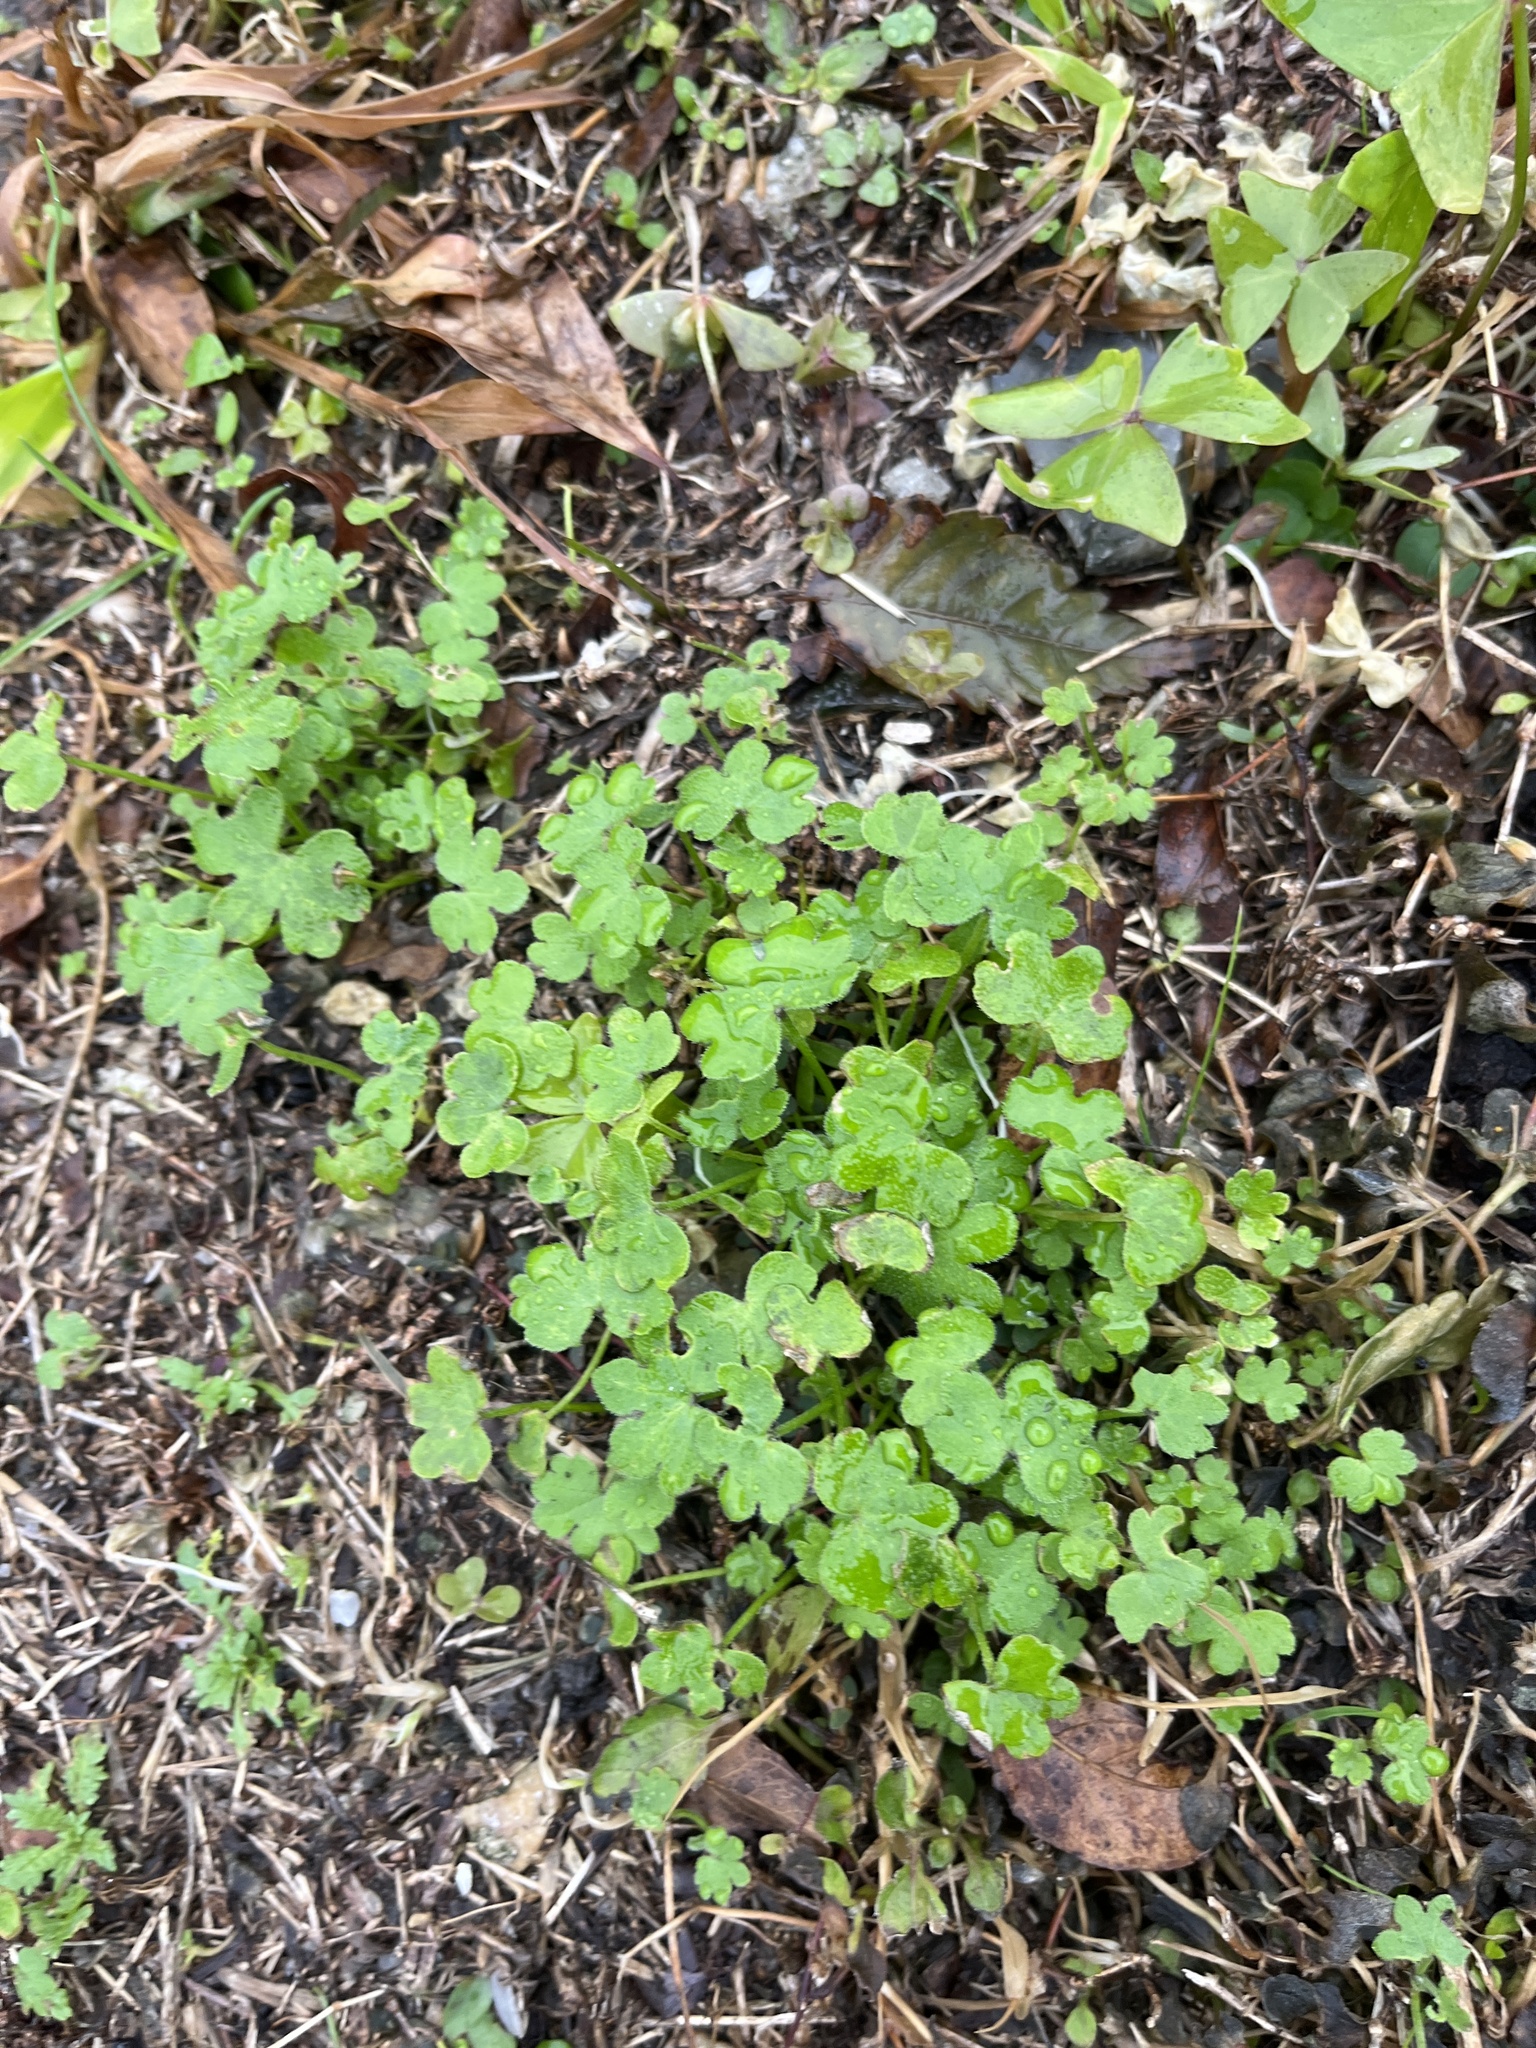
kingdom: Plantae
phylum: Tracheophyta
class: Magnoliopsida
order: Apiales
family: Apiaceae
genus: Bowlesia
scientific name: Bowlesia incana
